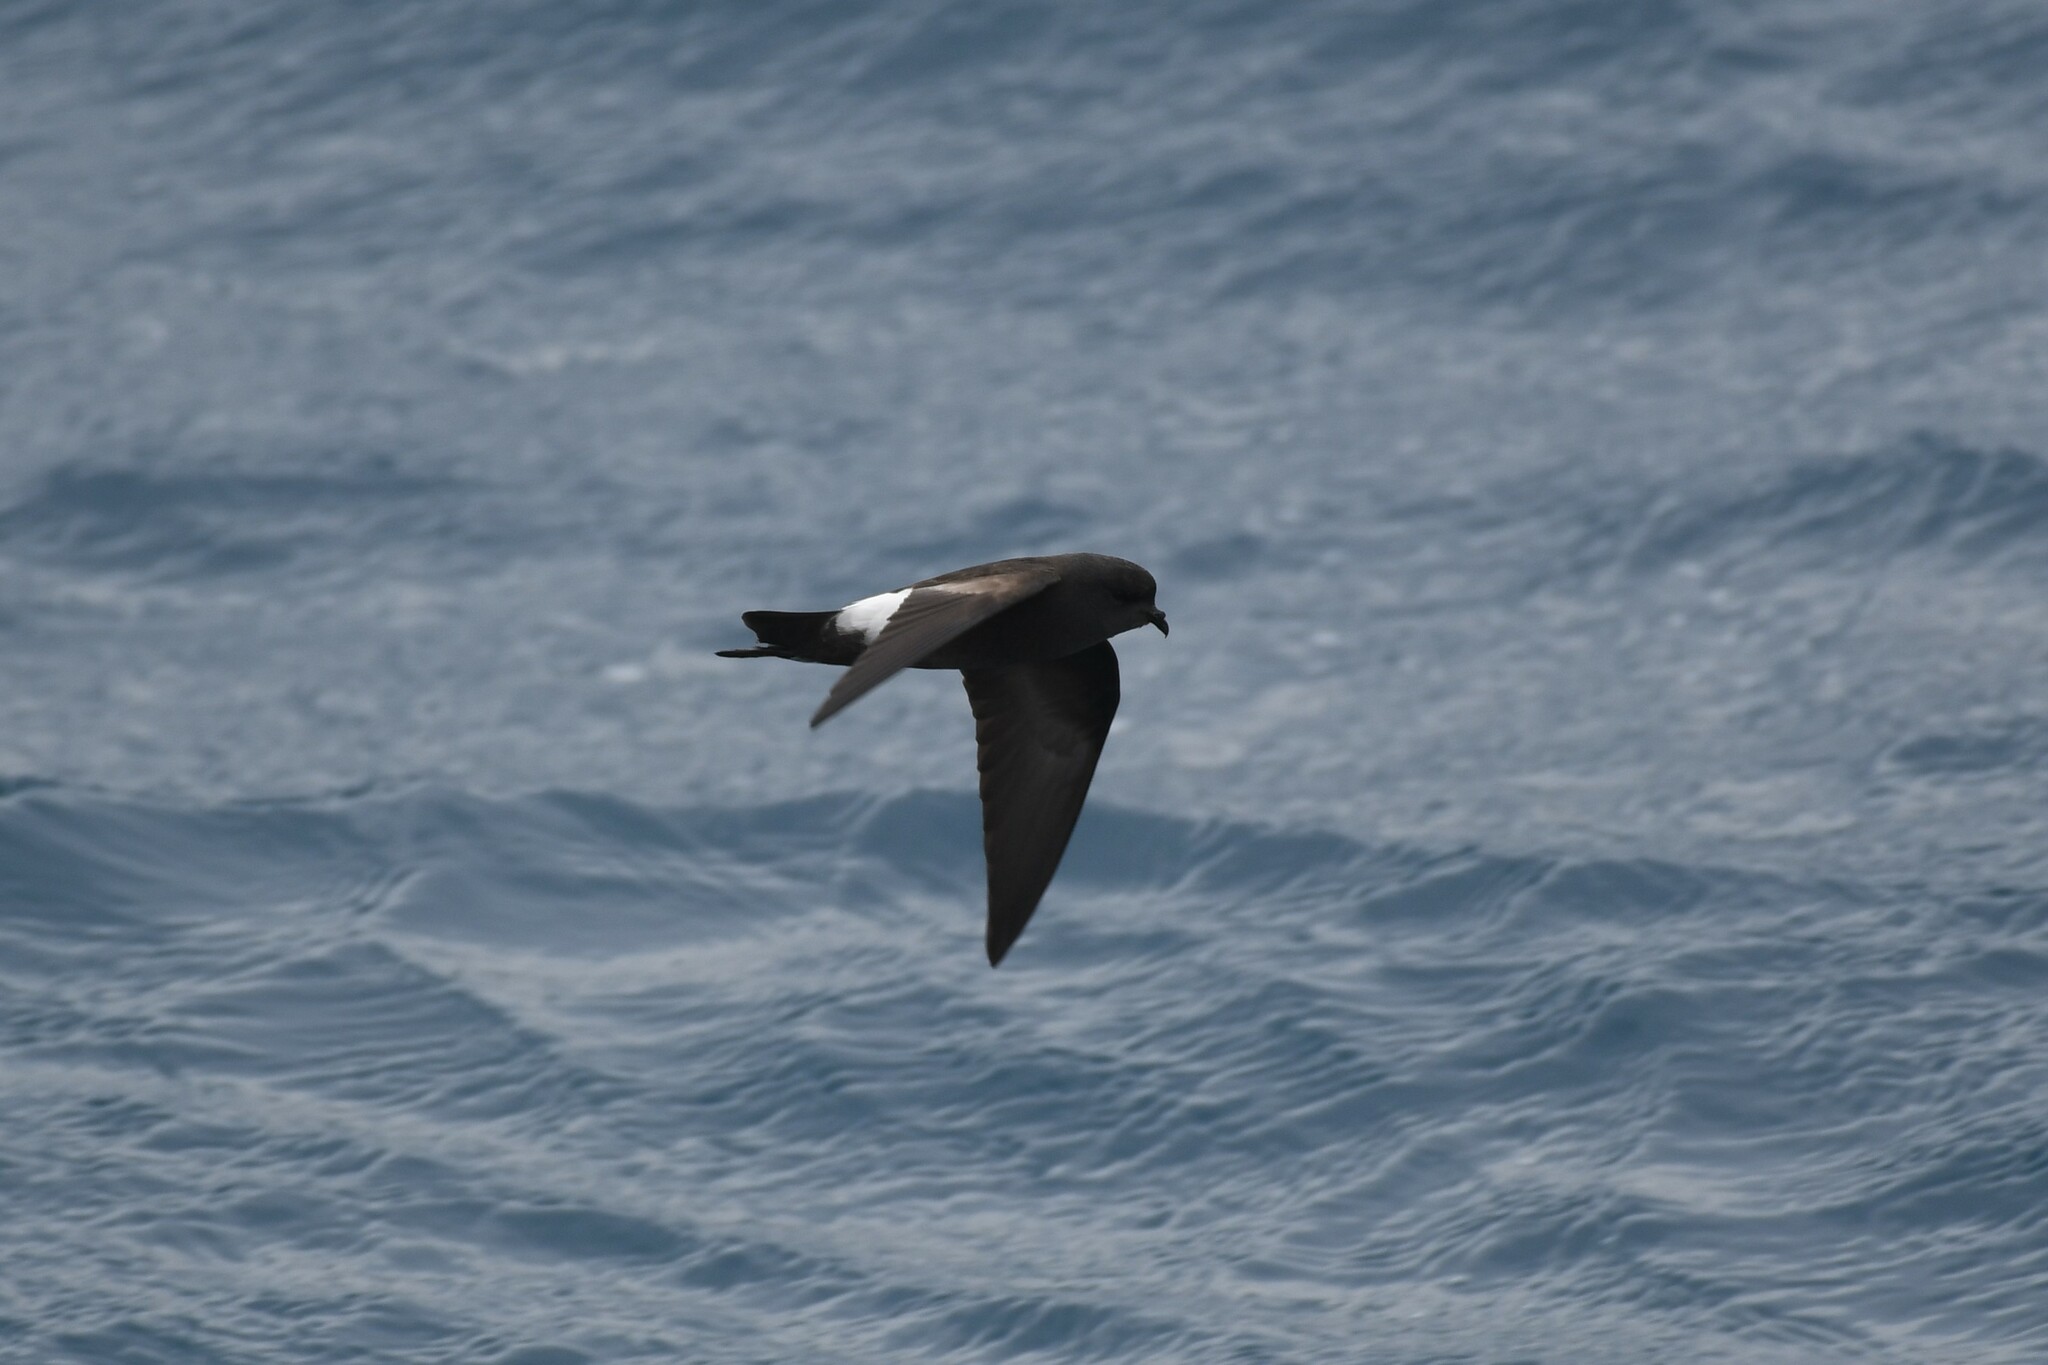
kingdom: Animalia
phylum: Chordata
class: Aves
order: Procellariiformes
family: Hydrobatidae
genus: Oceanites
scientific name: Oceanites oceanicus
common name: Wilson's storm petrel
